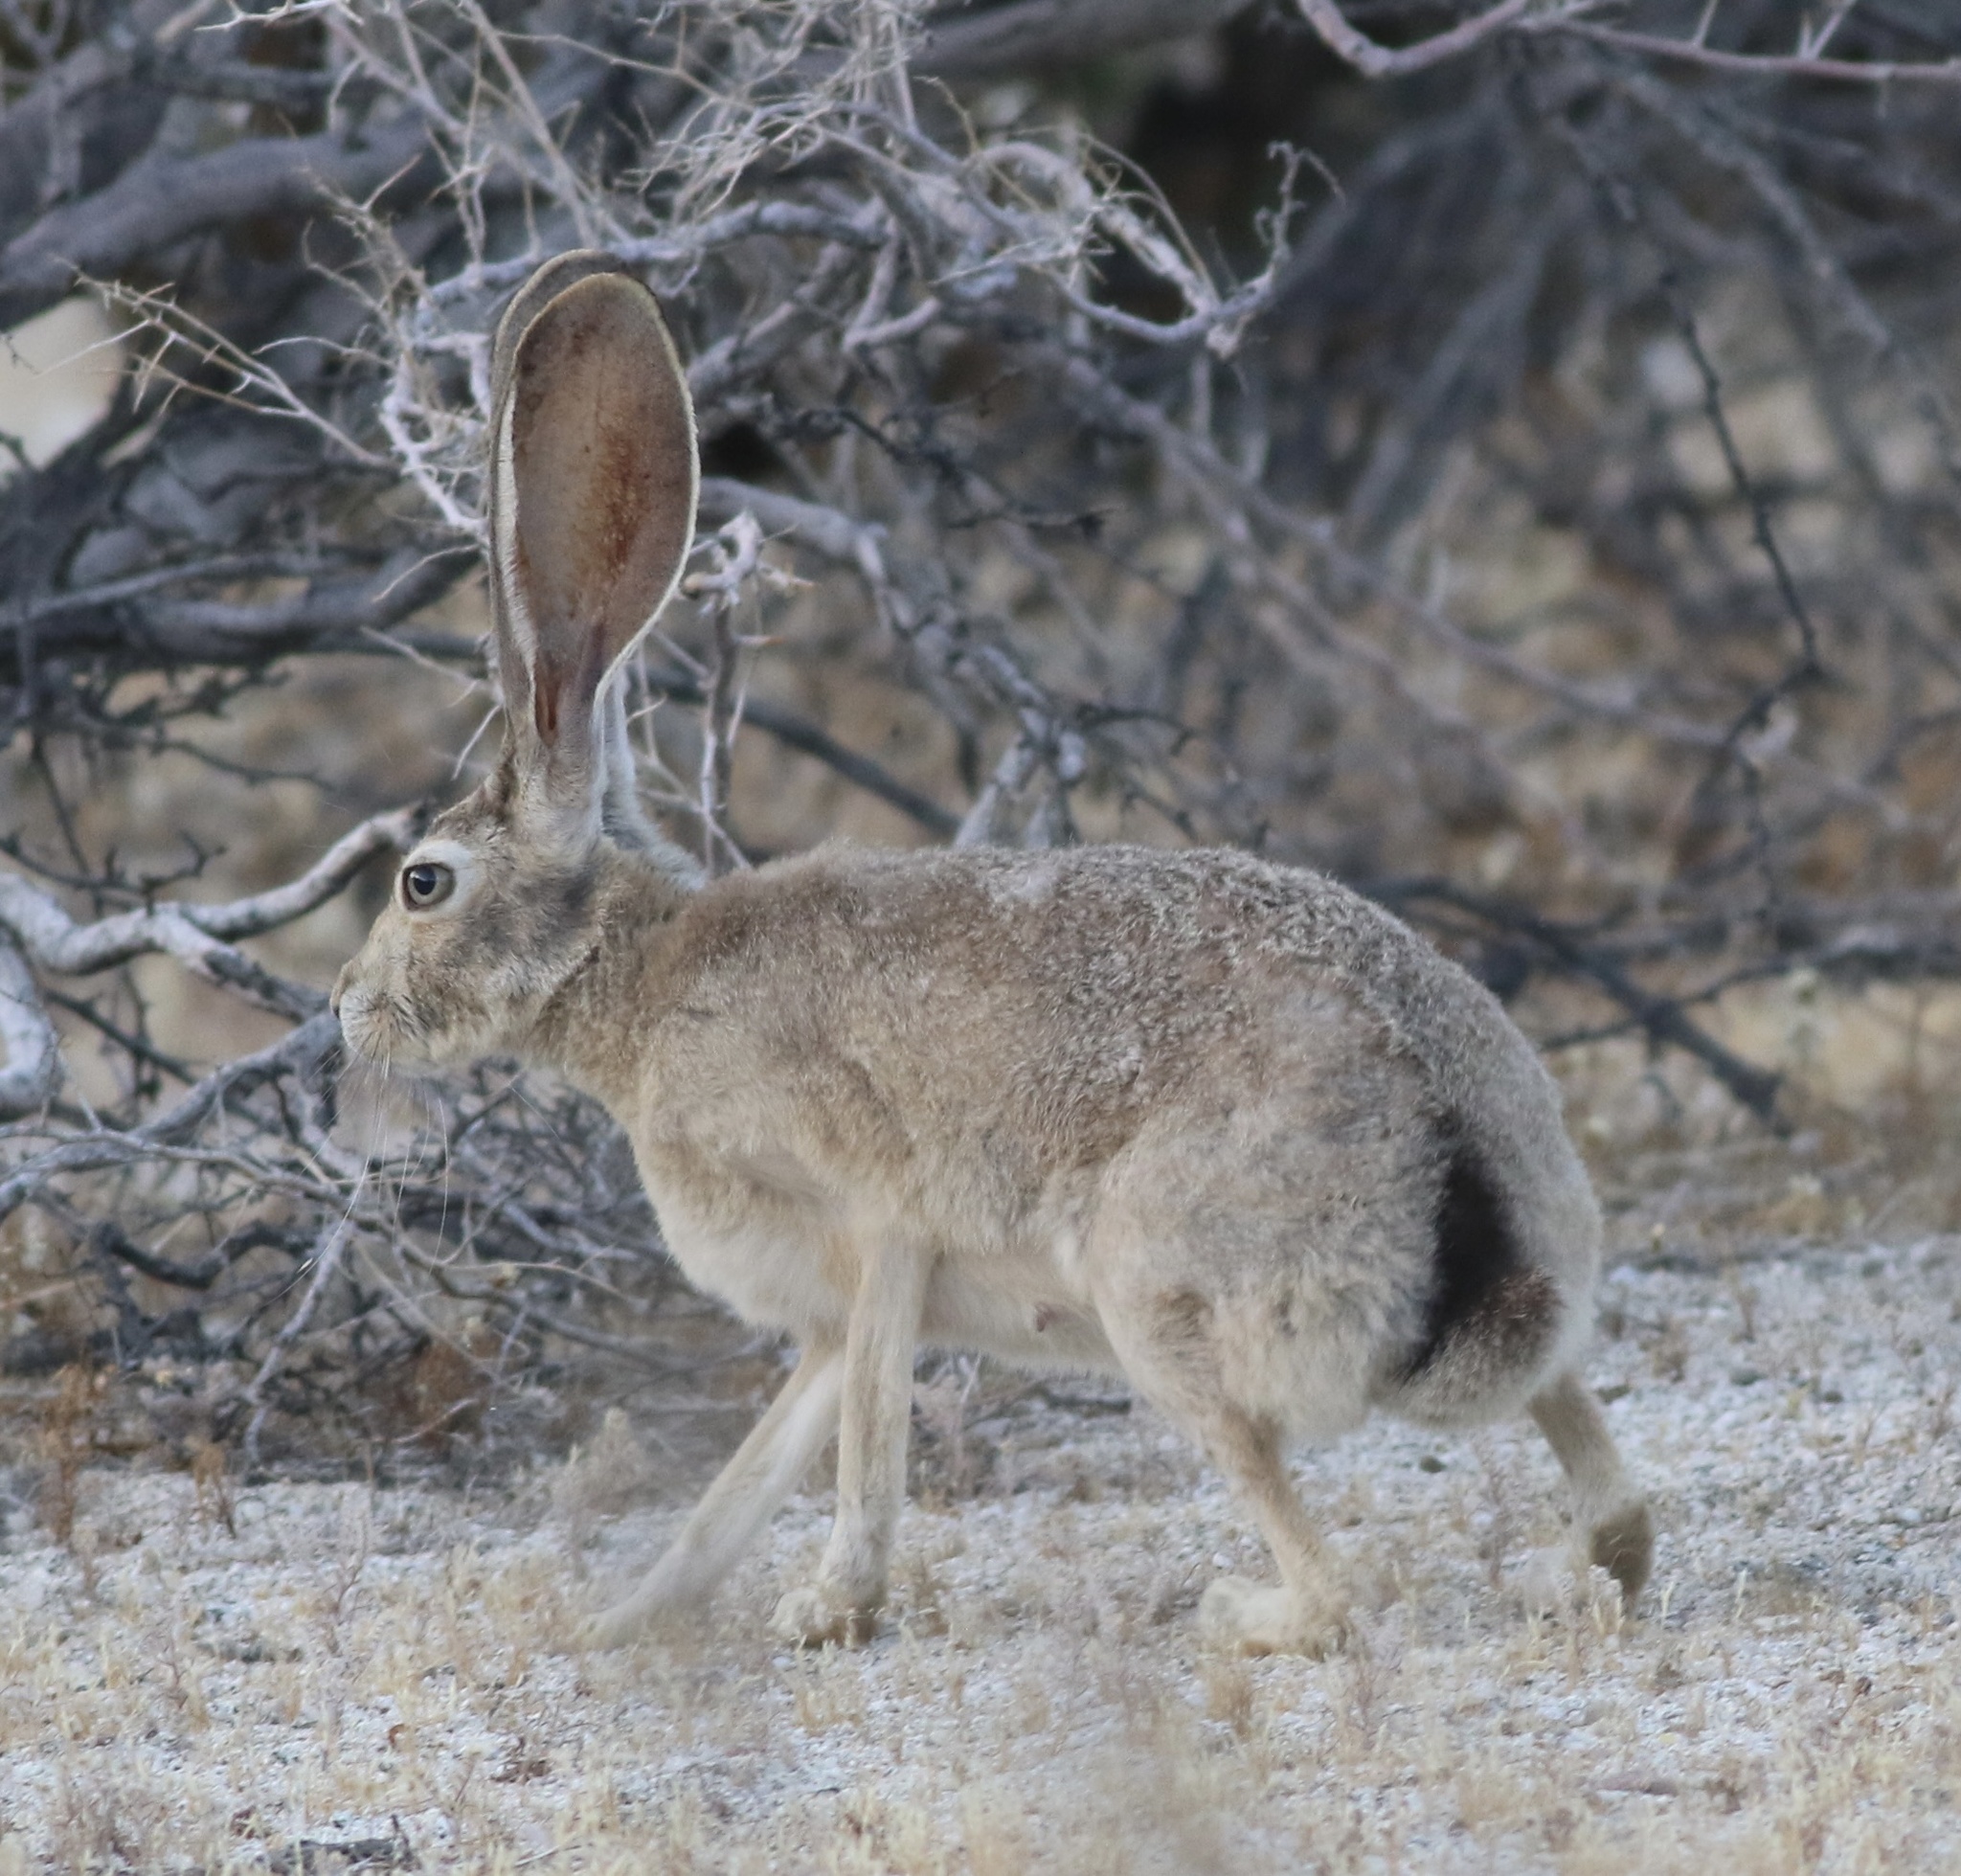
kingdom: Animalia
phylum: Chordata
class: Mammalia
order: Lagomorpha
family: Leporidae
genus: Lepus
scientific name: Lepus californicus
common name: Black-tailed jackrabbit
